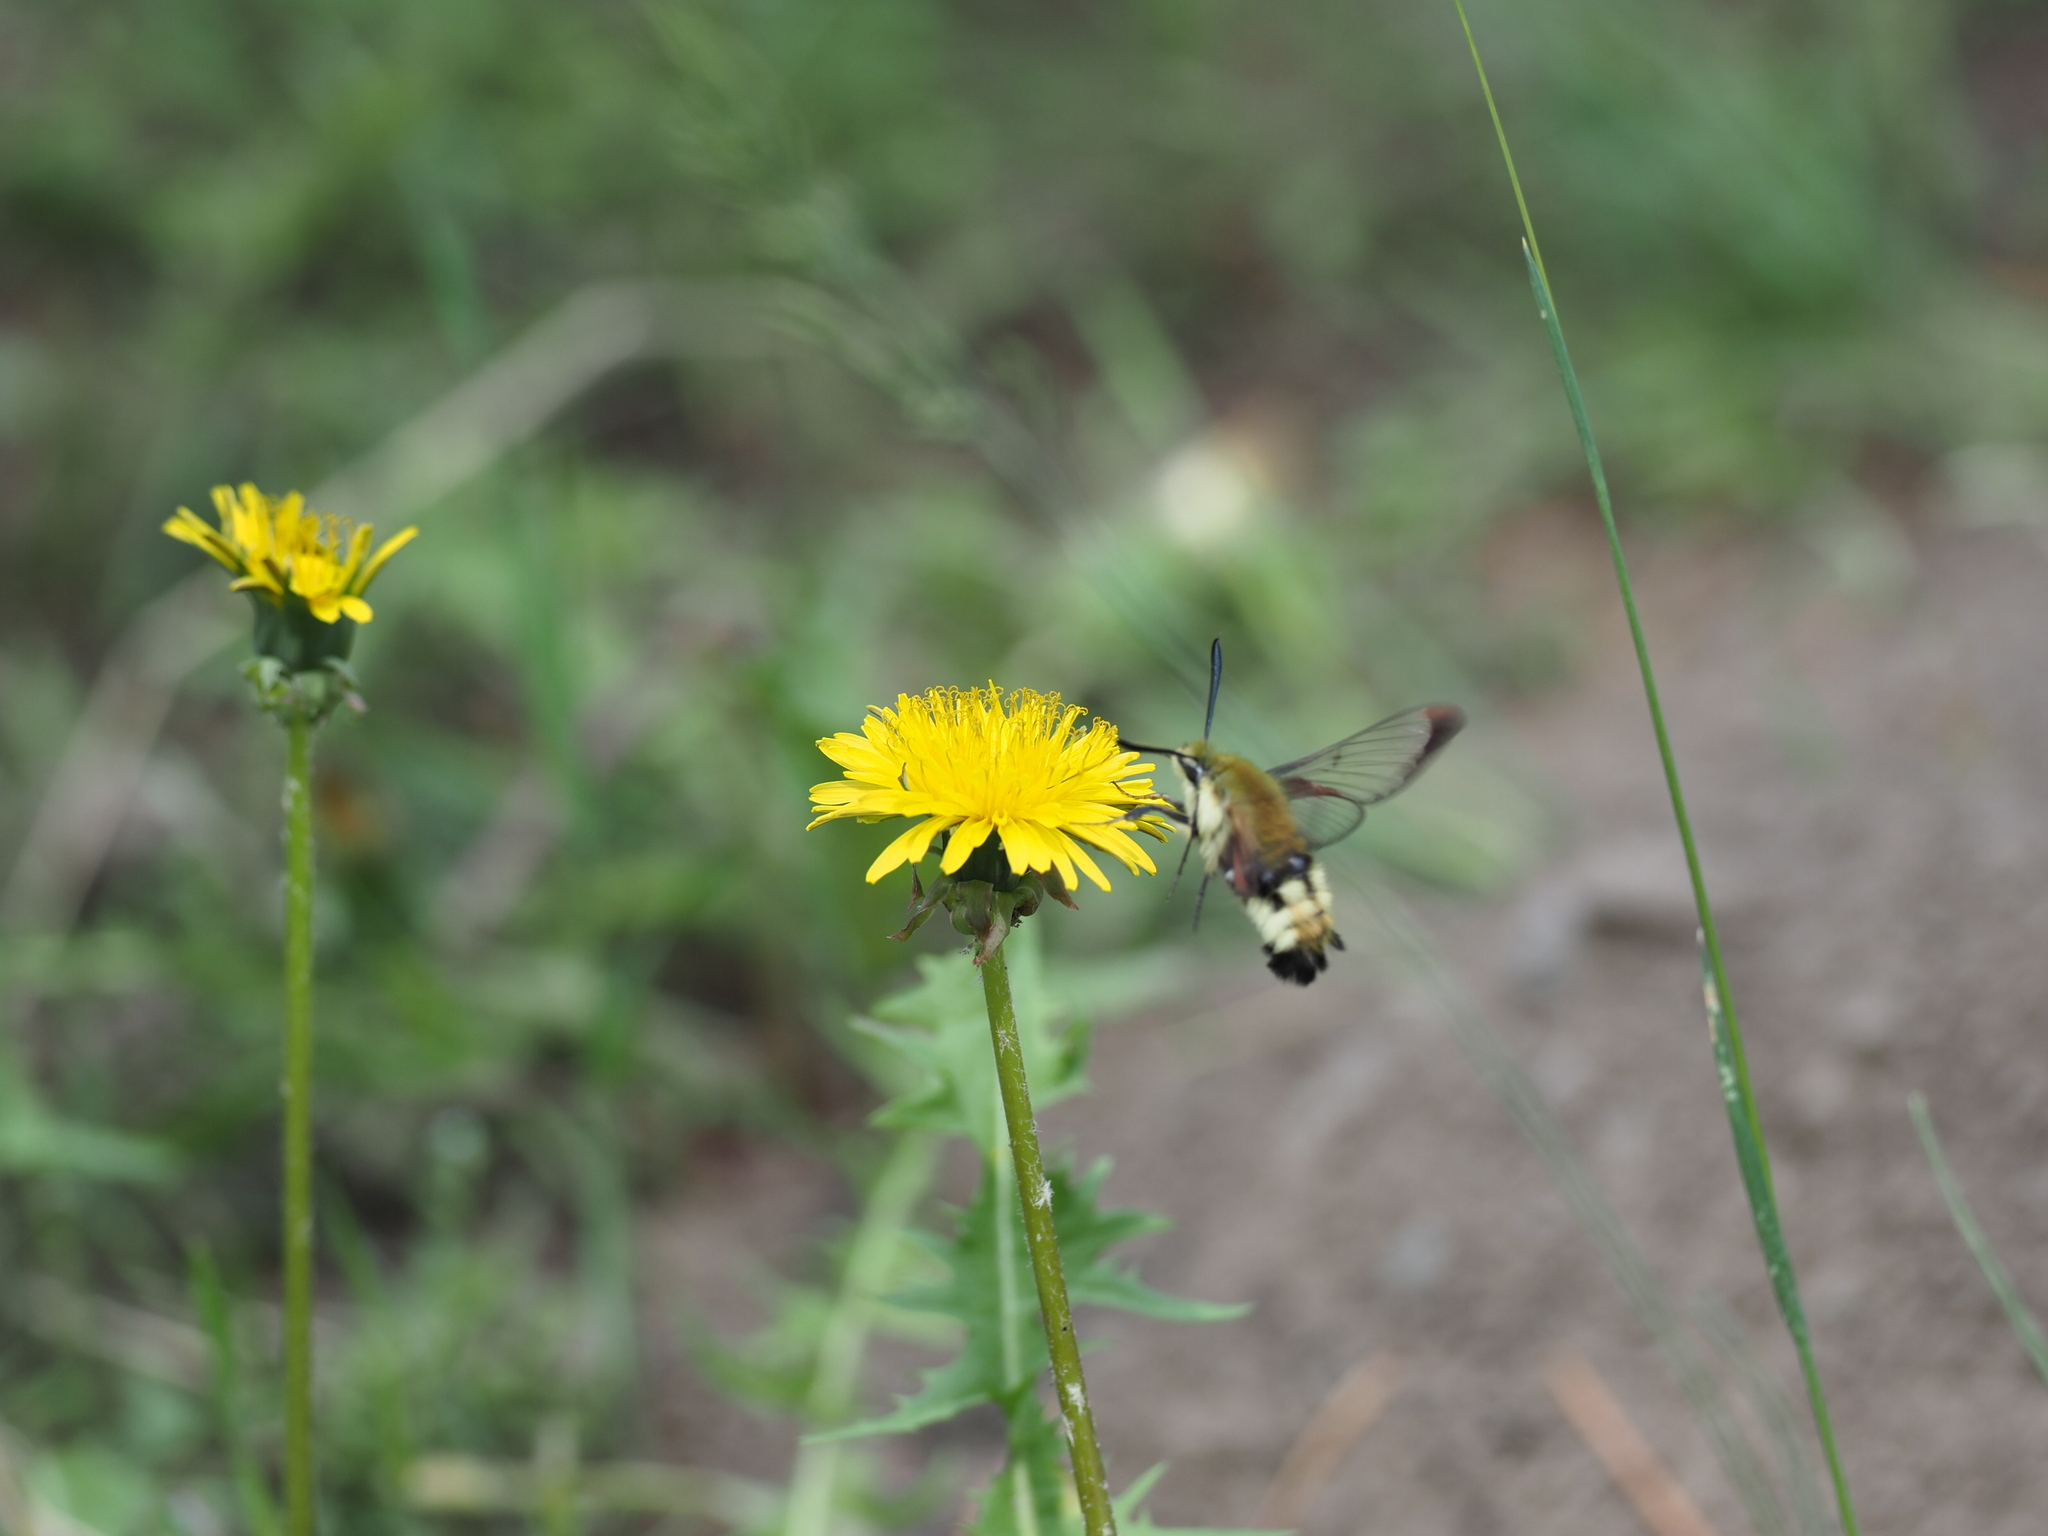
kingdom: Animalia
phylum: Arthropoda
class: Insecta
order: Lepidoptera
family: Sphingidae
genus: Hemaris
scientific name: Hemaris thetis
